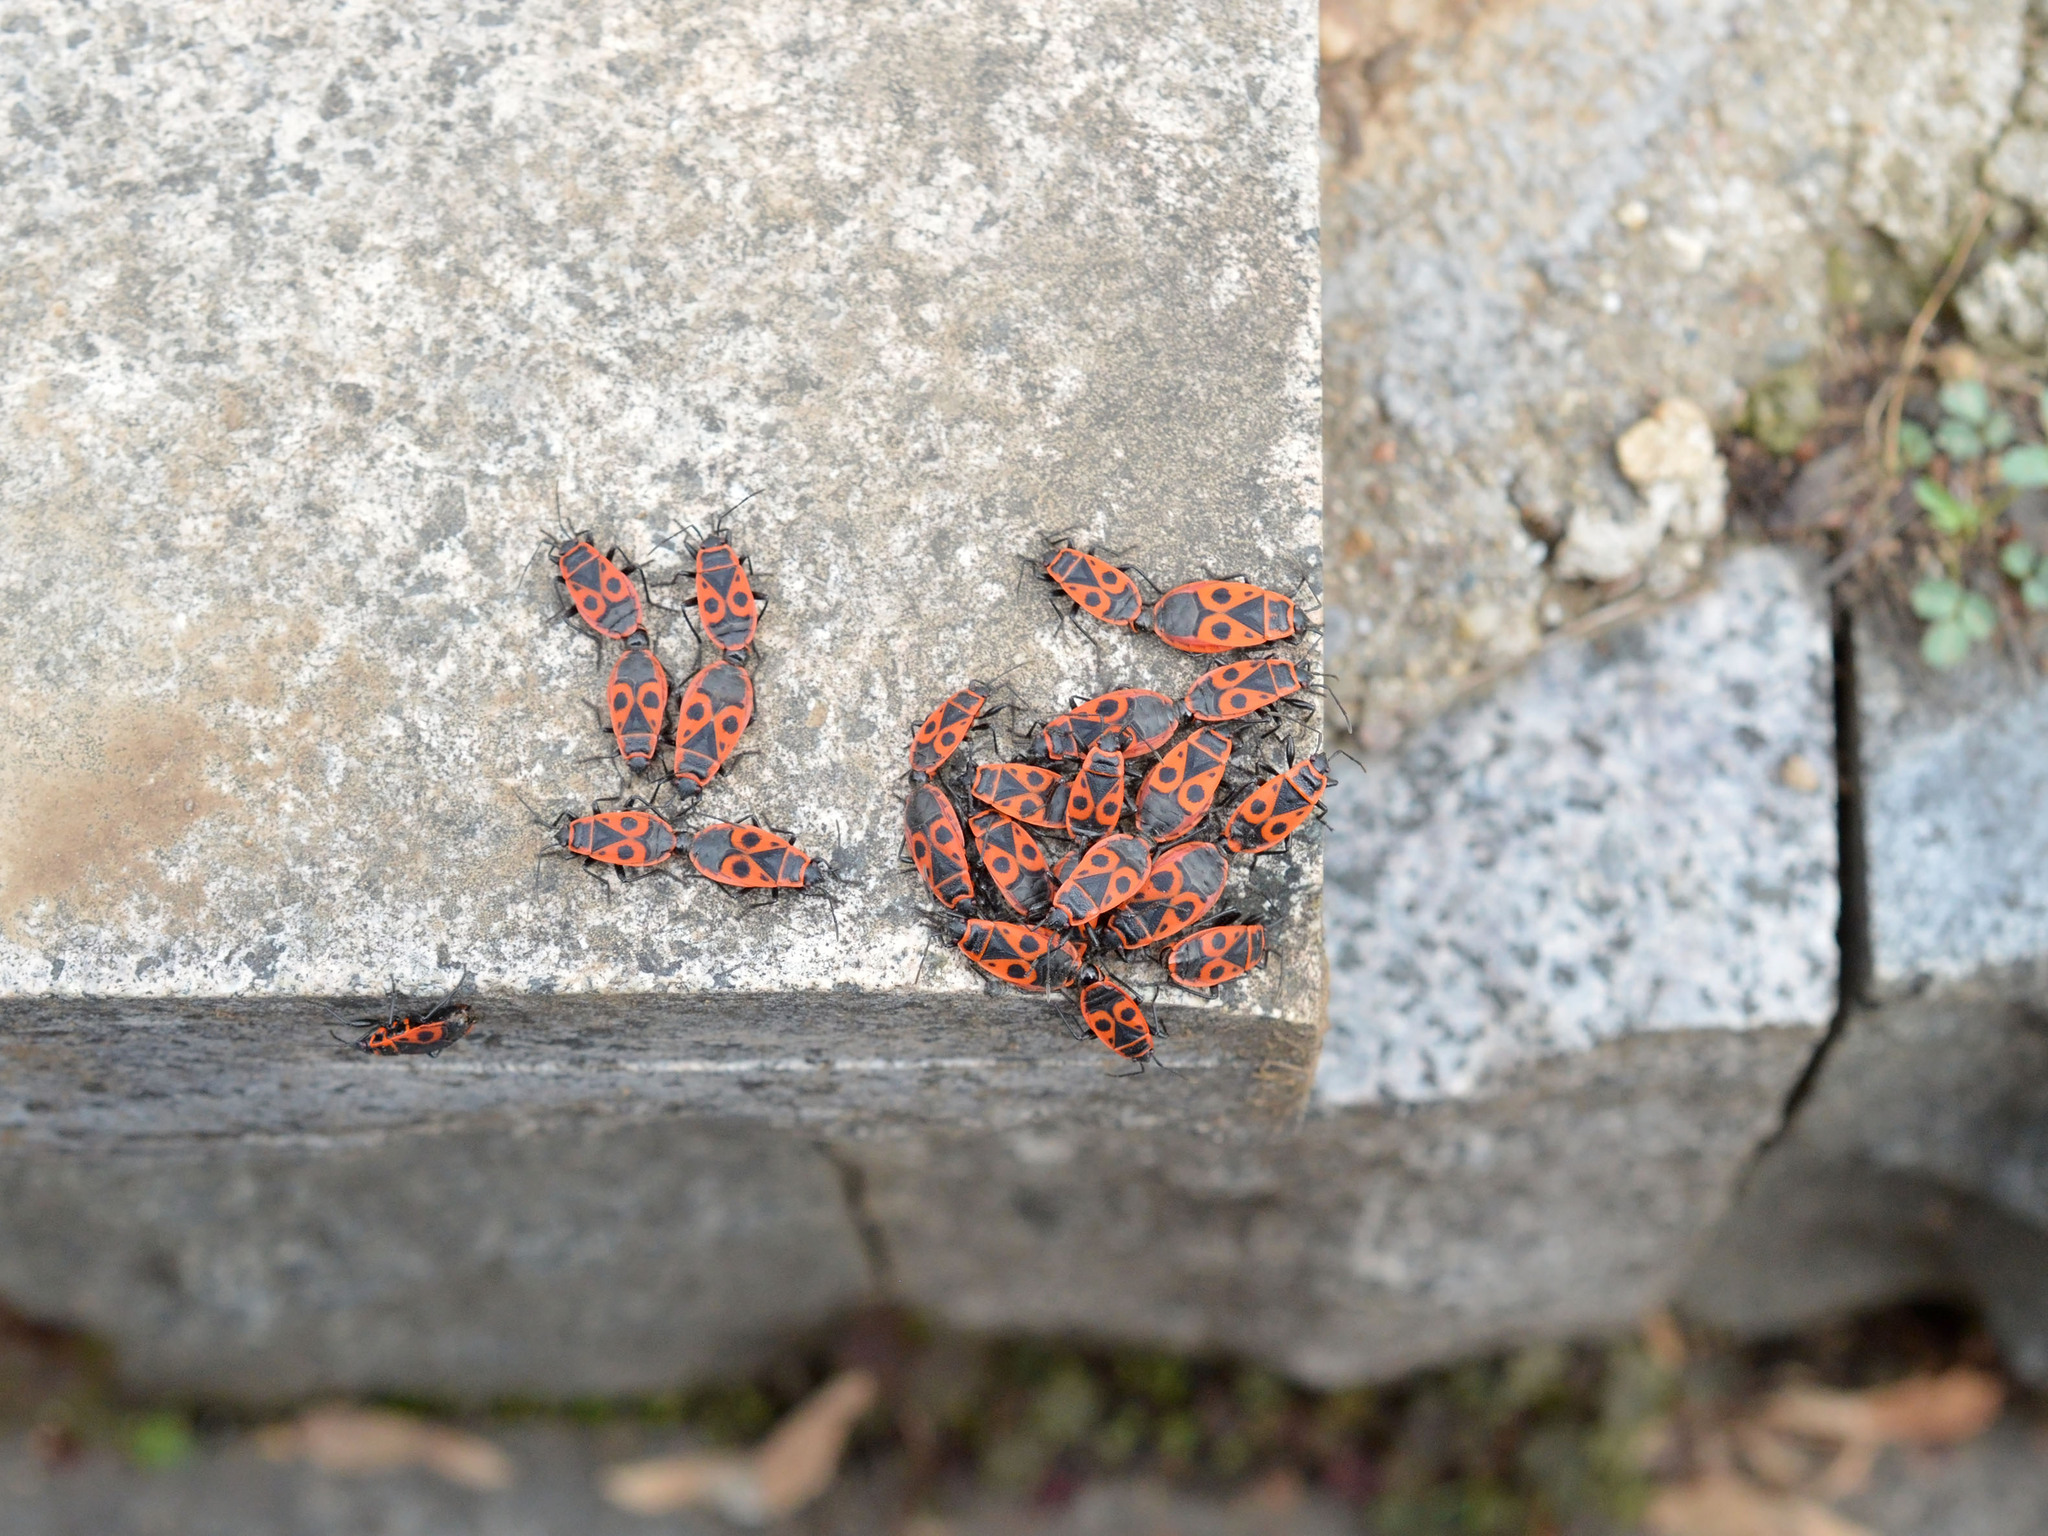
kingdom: Animalia
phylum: Arthropoda
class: Insecta
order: Hemiptera
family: Pyrrhocoridae
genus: Pyrrhocoris
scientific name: Pyrrhocoris apterus
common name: Firebug
